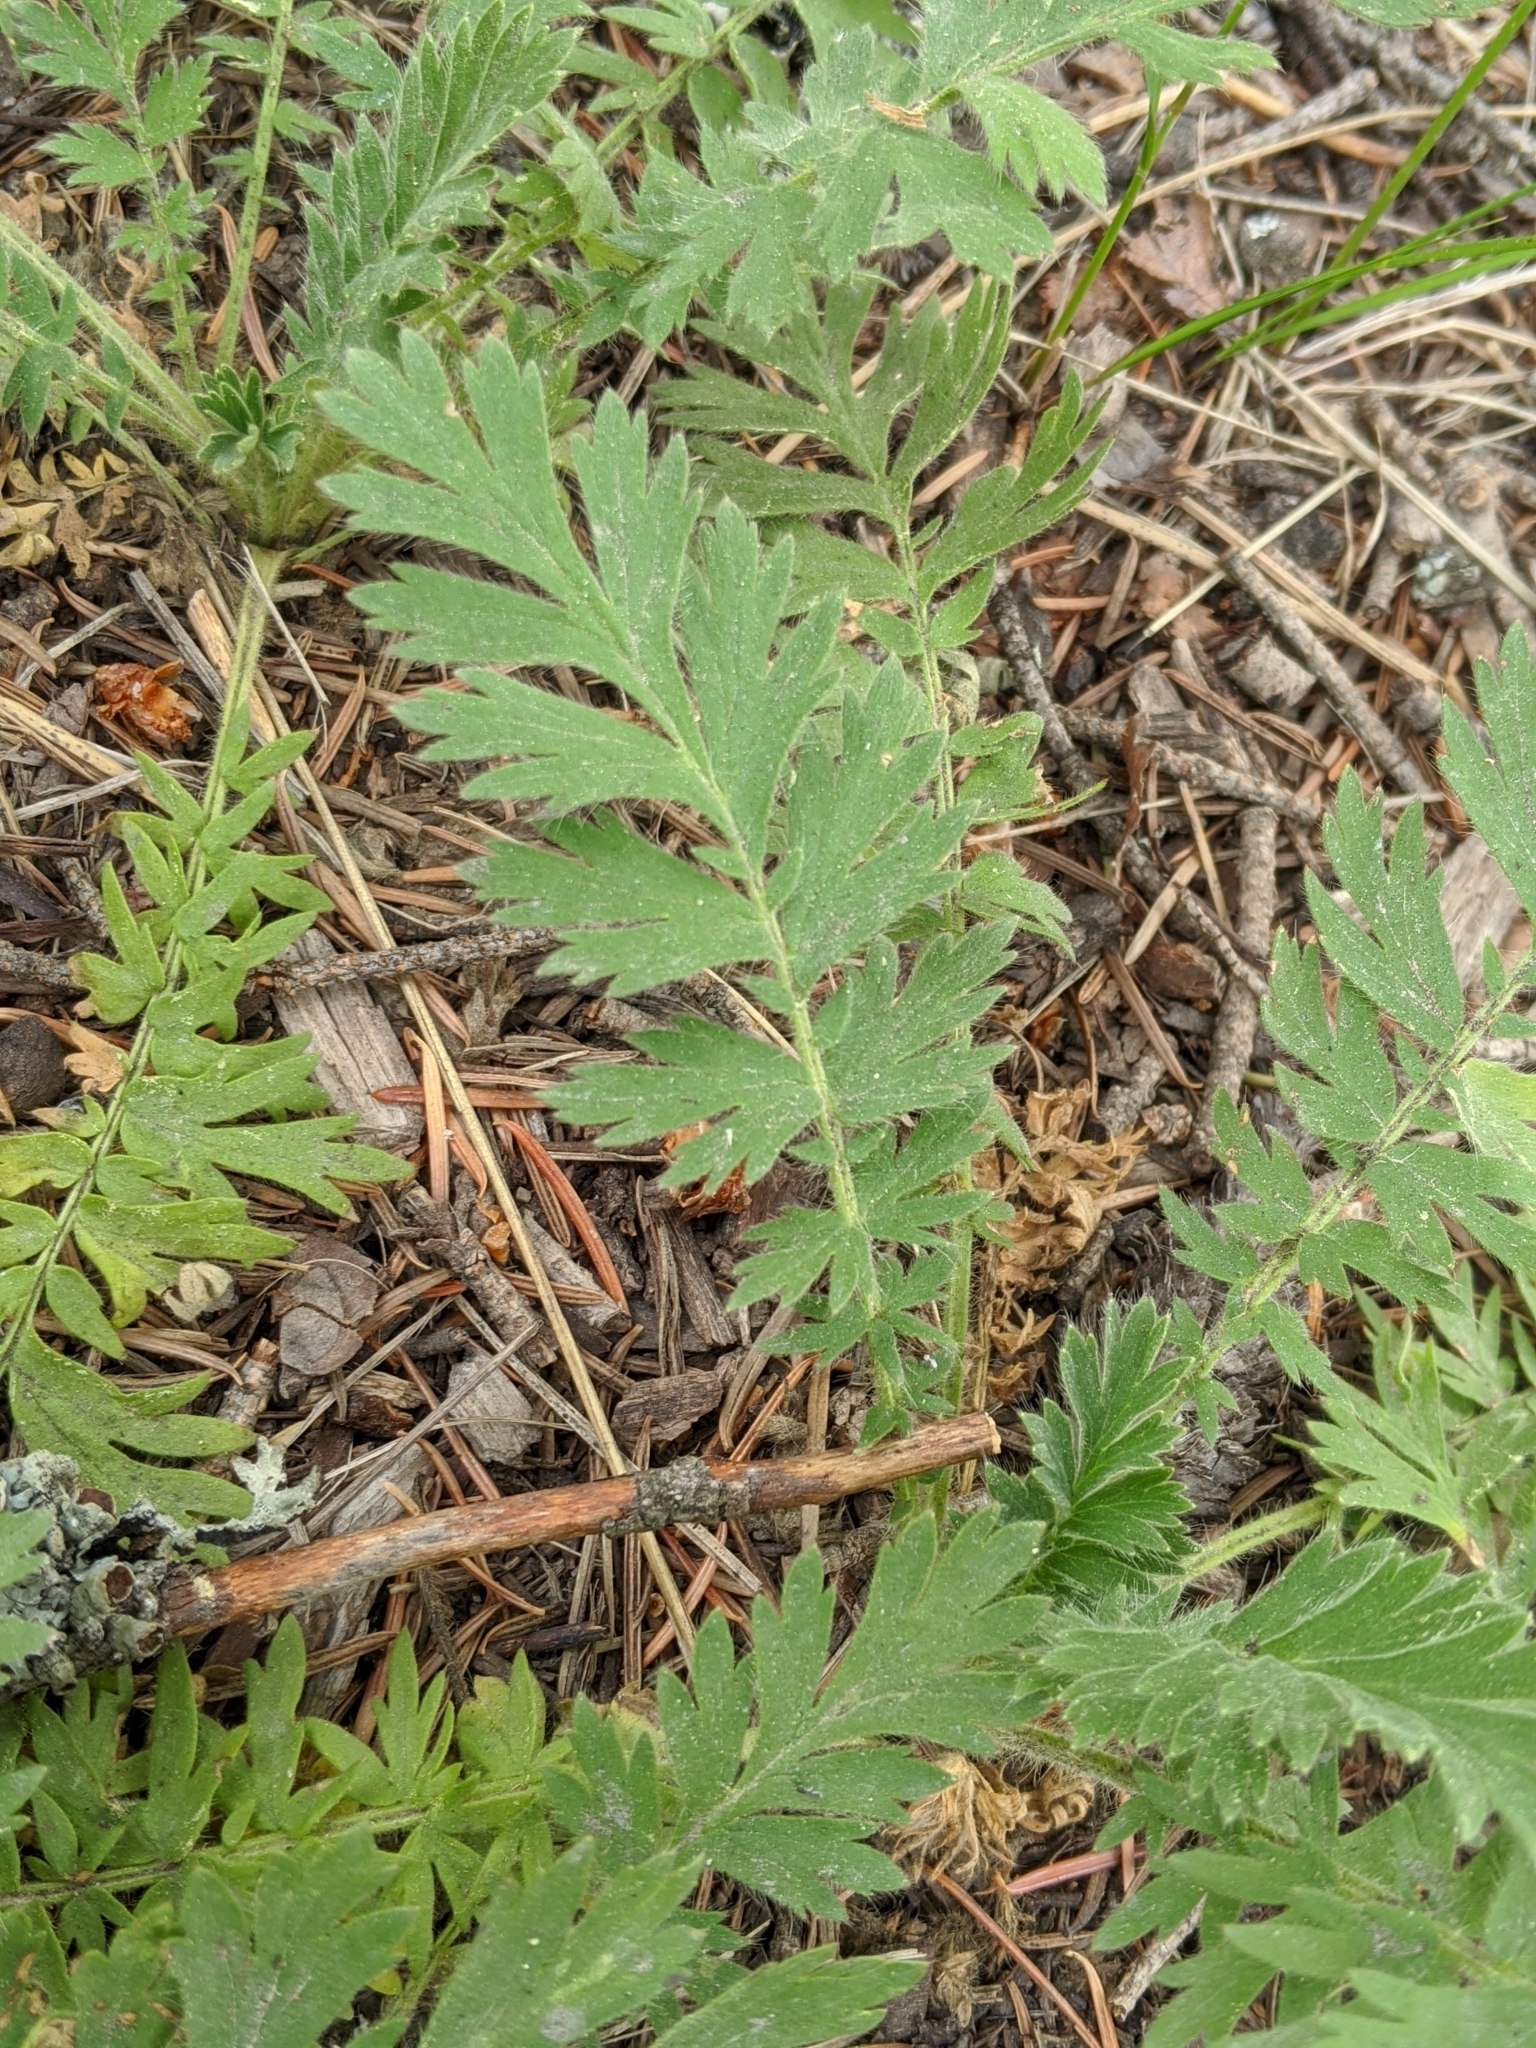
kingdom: Plantae
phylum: Tracheophyta
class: Magnoliopsida
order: Rosales
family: Rosaceae
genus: Geum
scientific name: Geum triflorum
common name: Old man's whiskers
